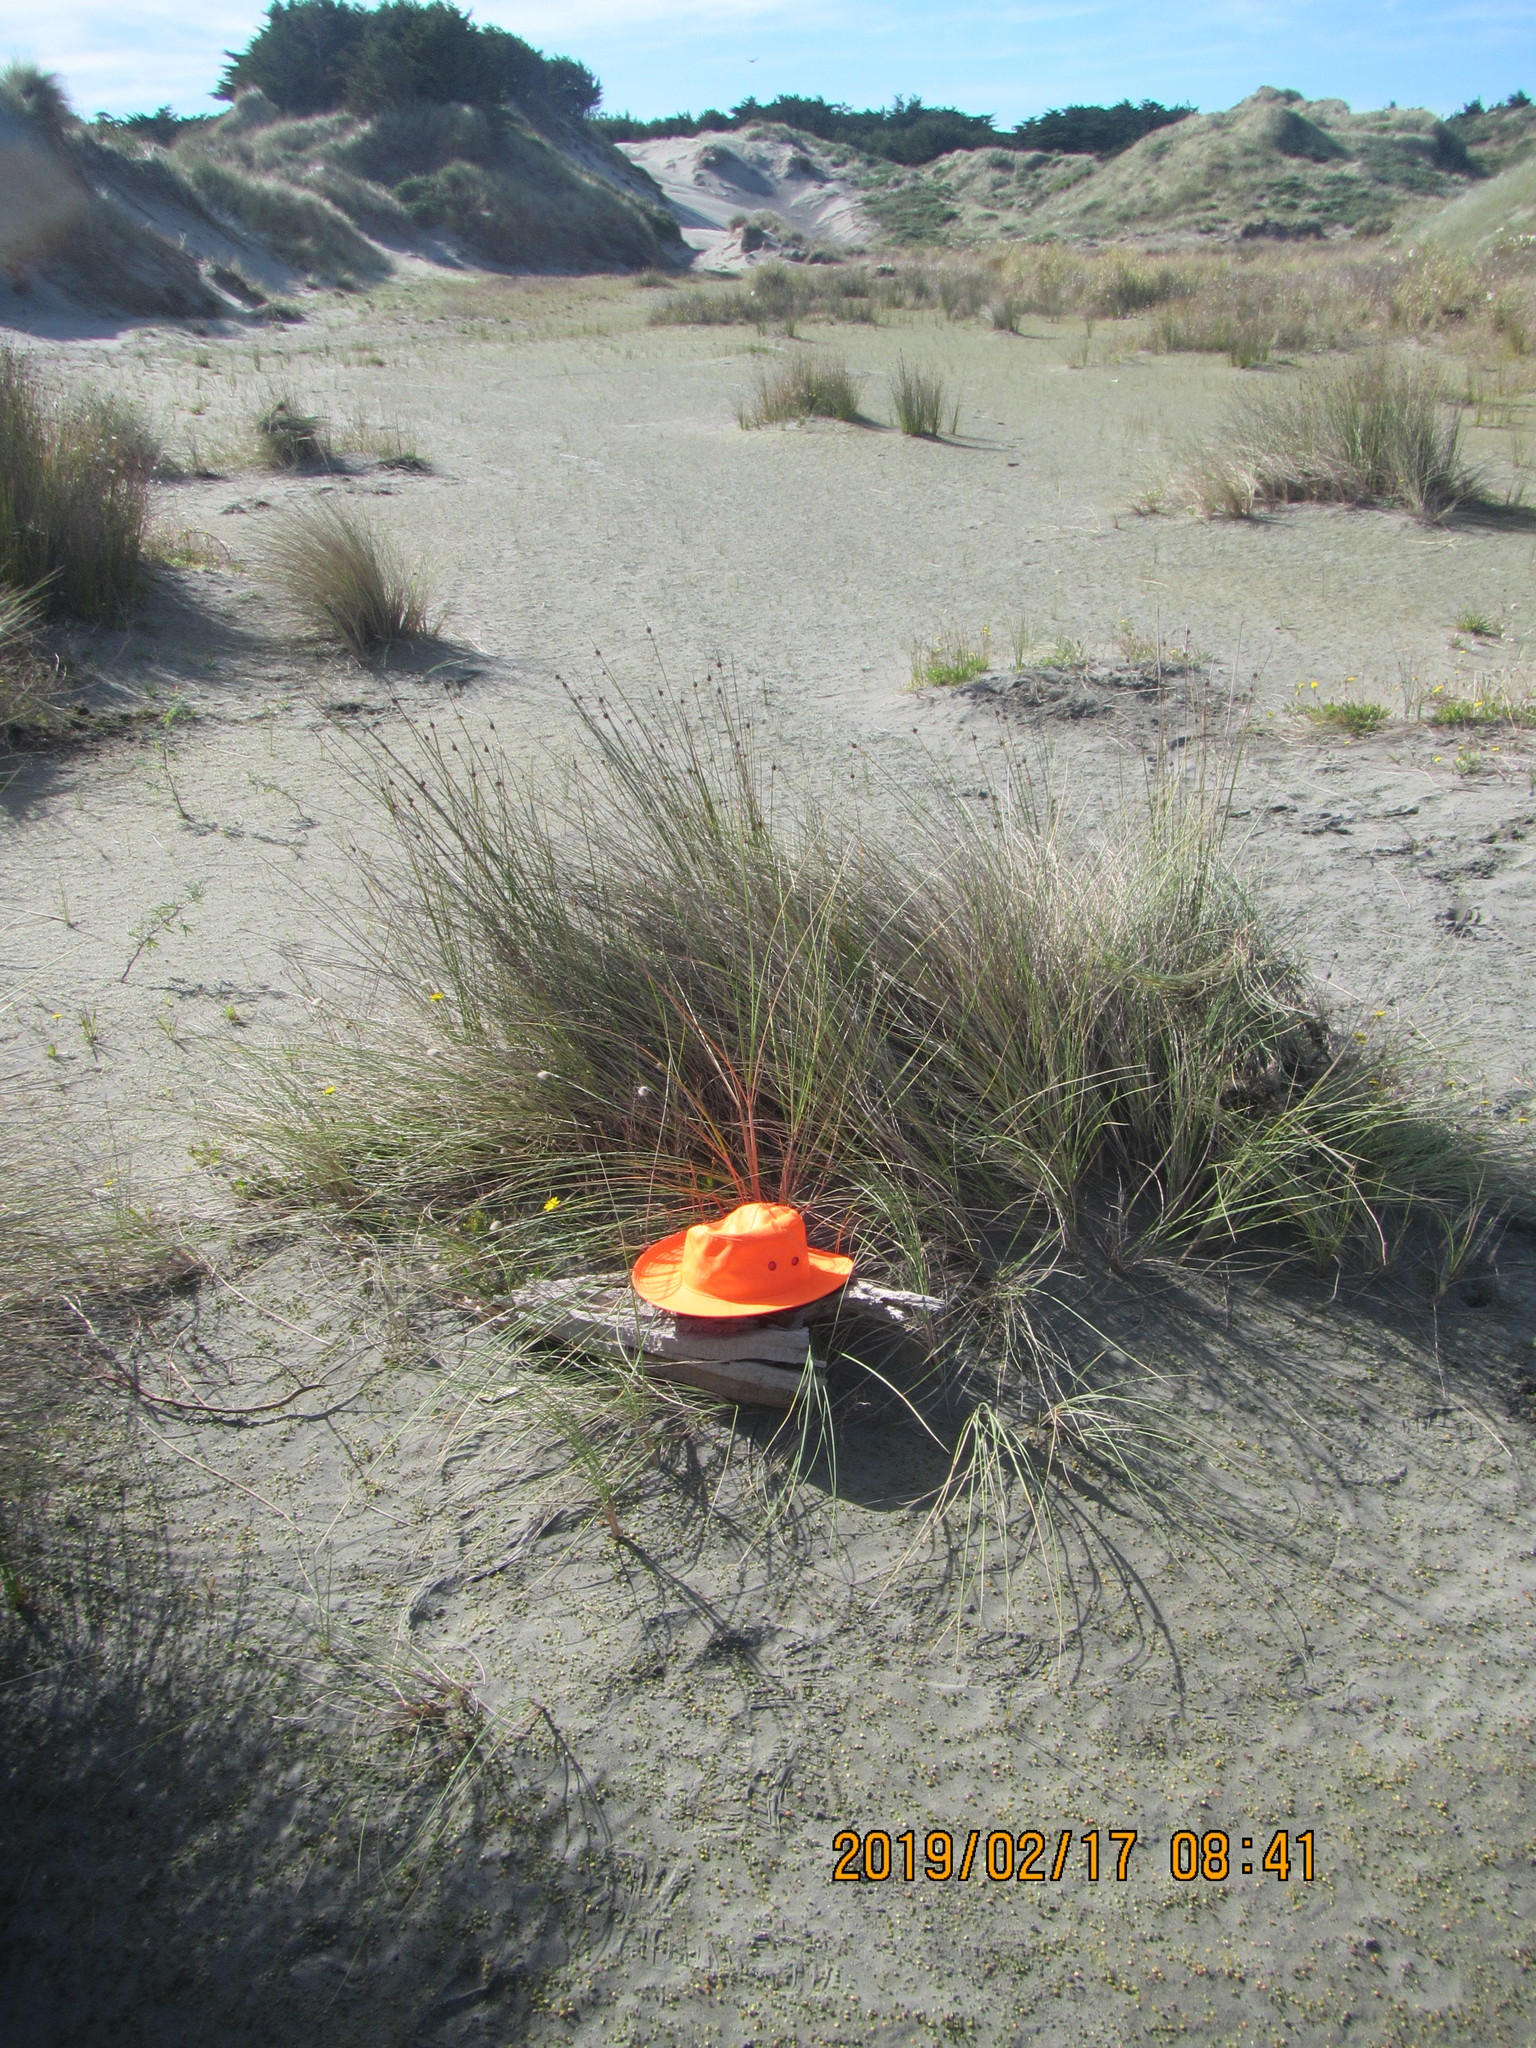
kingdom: Animalia
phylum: Arthropoda
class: Arachnida
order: Araneae
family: Dysderidae
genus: Dysdera
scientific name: Dysdera crocata
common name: Woodlouse spider
